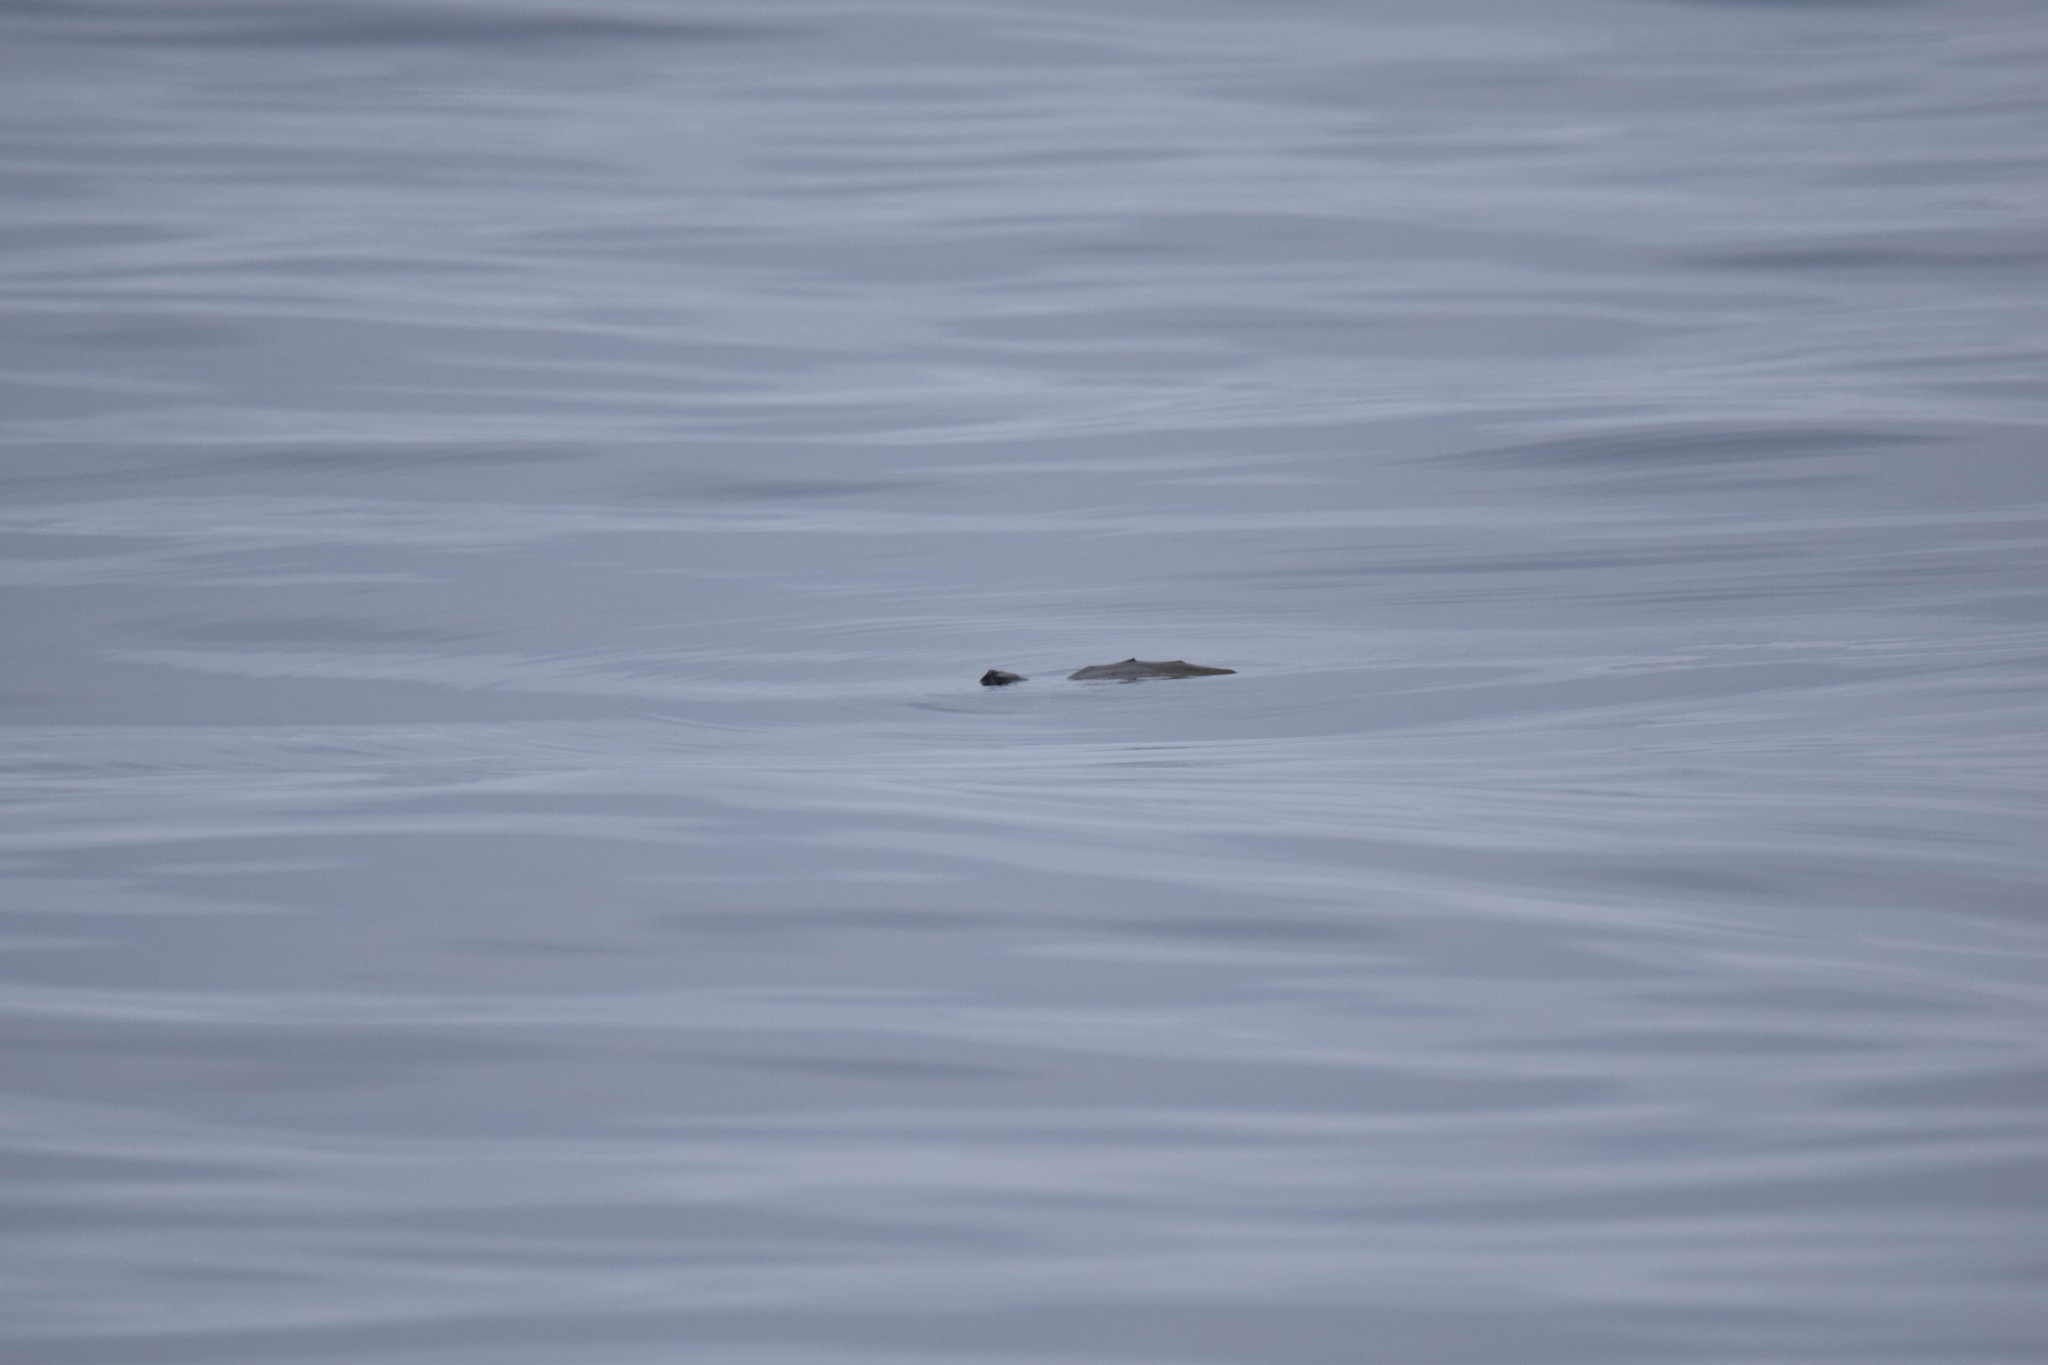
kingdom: Animalia
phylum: Chordata
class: Testudines
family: Cheloniidae
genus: Caretta
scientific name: Caretta caretta
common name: Loggerhead sea turtle
